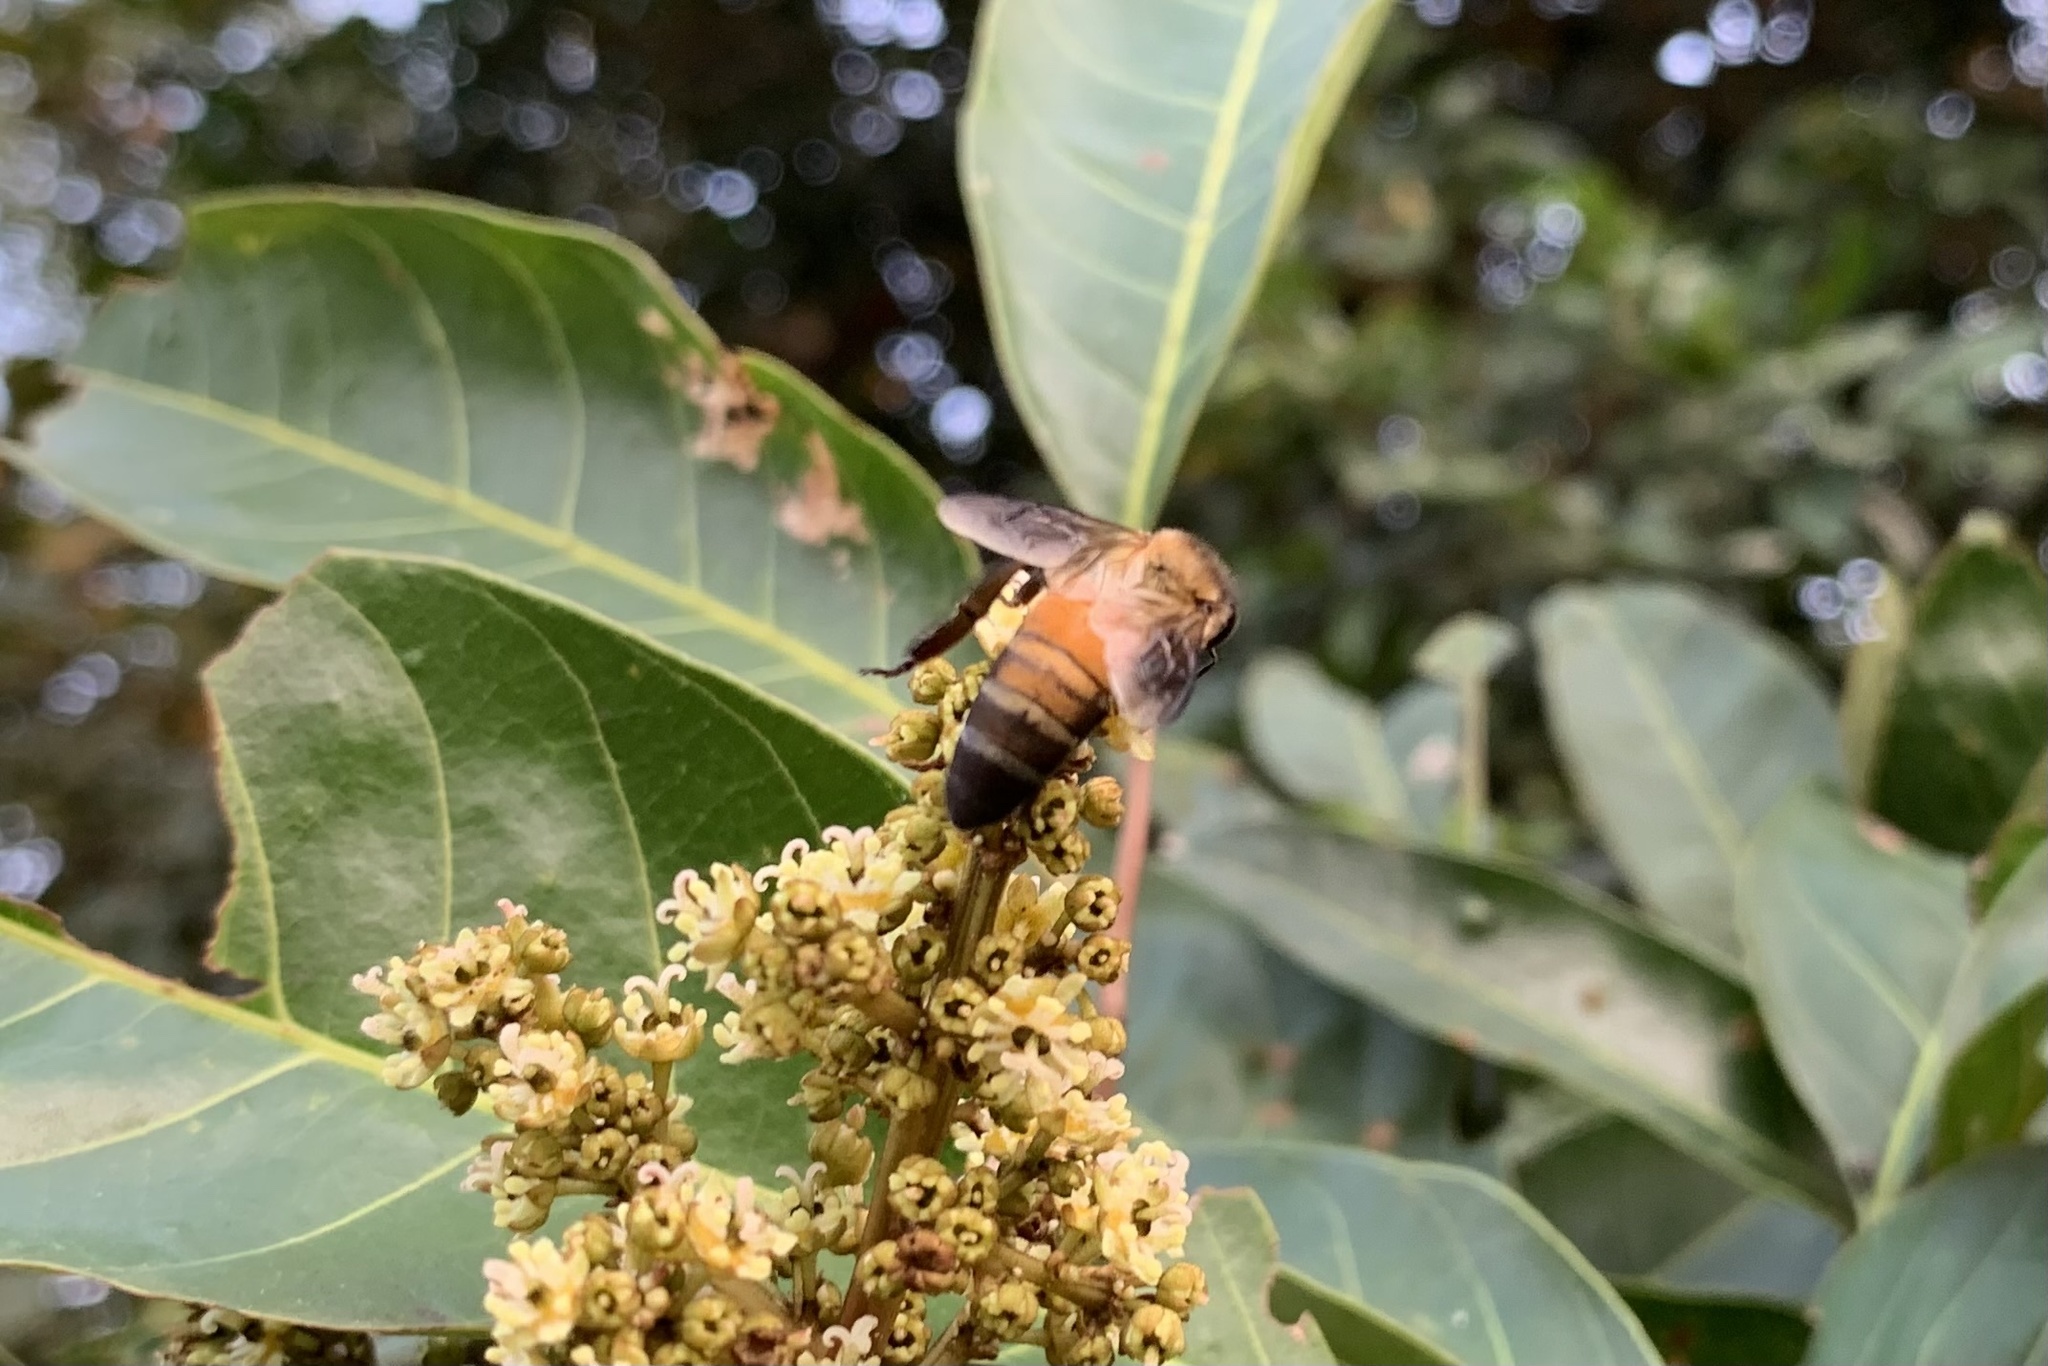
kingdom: Animalia
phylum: Arthropoda
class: Insecta
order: Hymenoptera
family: Apidae
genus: Apis
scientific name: Apis dorsata
